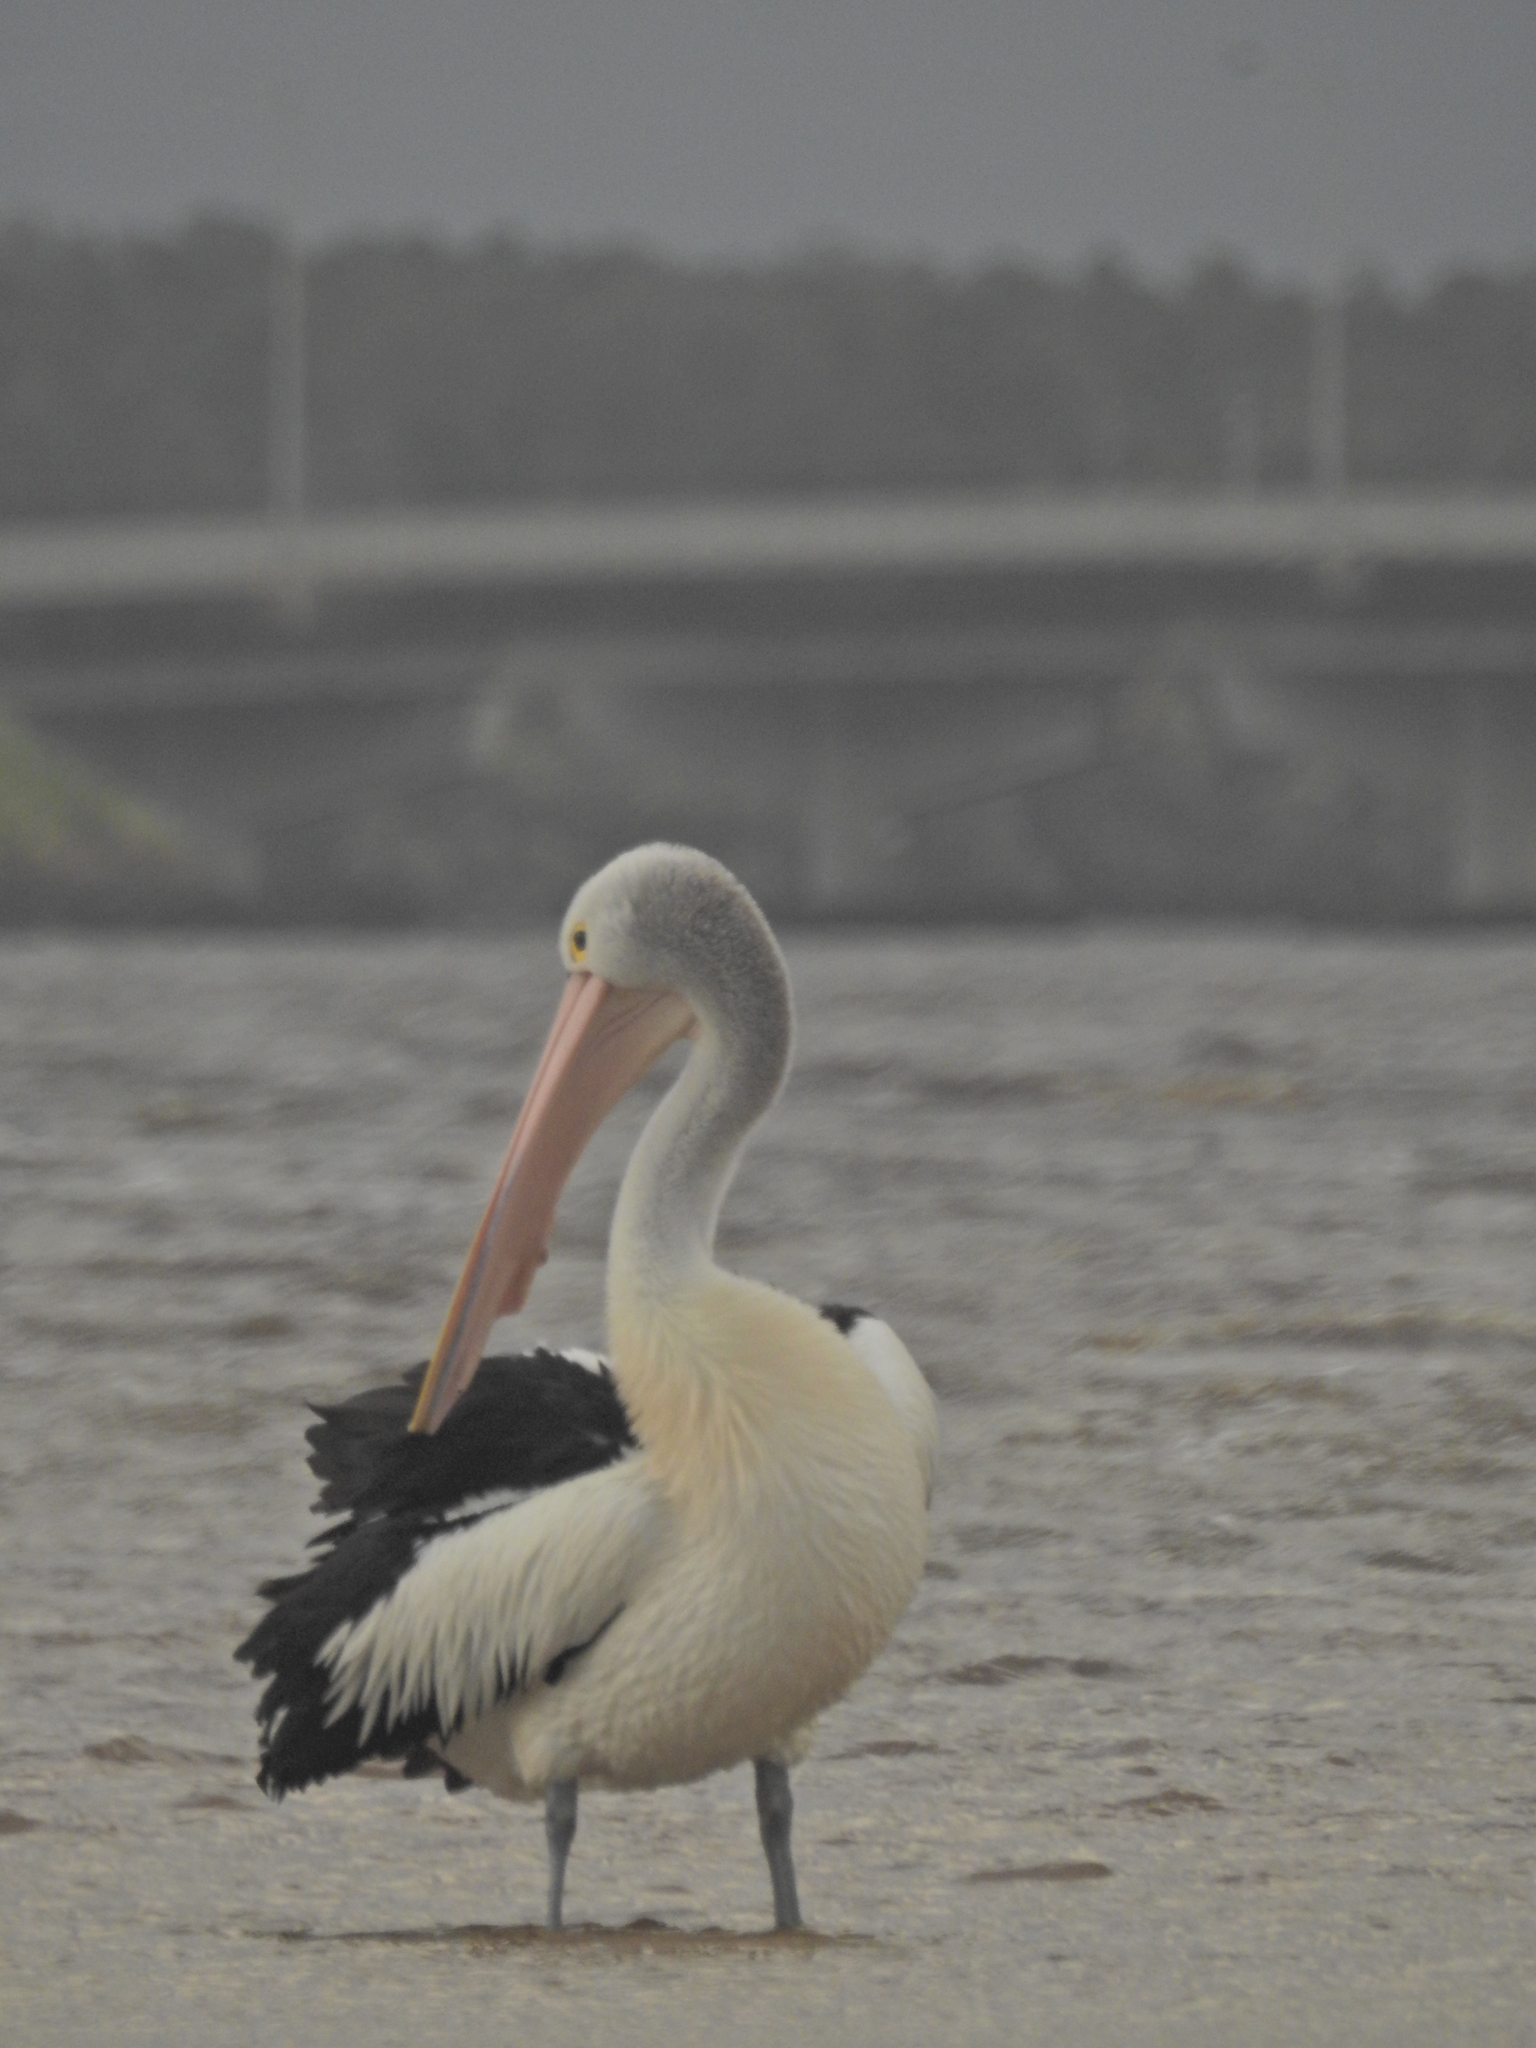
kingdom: Animalia
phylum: Chordata
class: Aves
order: Pelecaniformes
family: Pelecanidae
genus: Pelecanus
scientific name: Pelecanus conspicillatus
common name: Australian pelican
